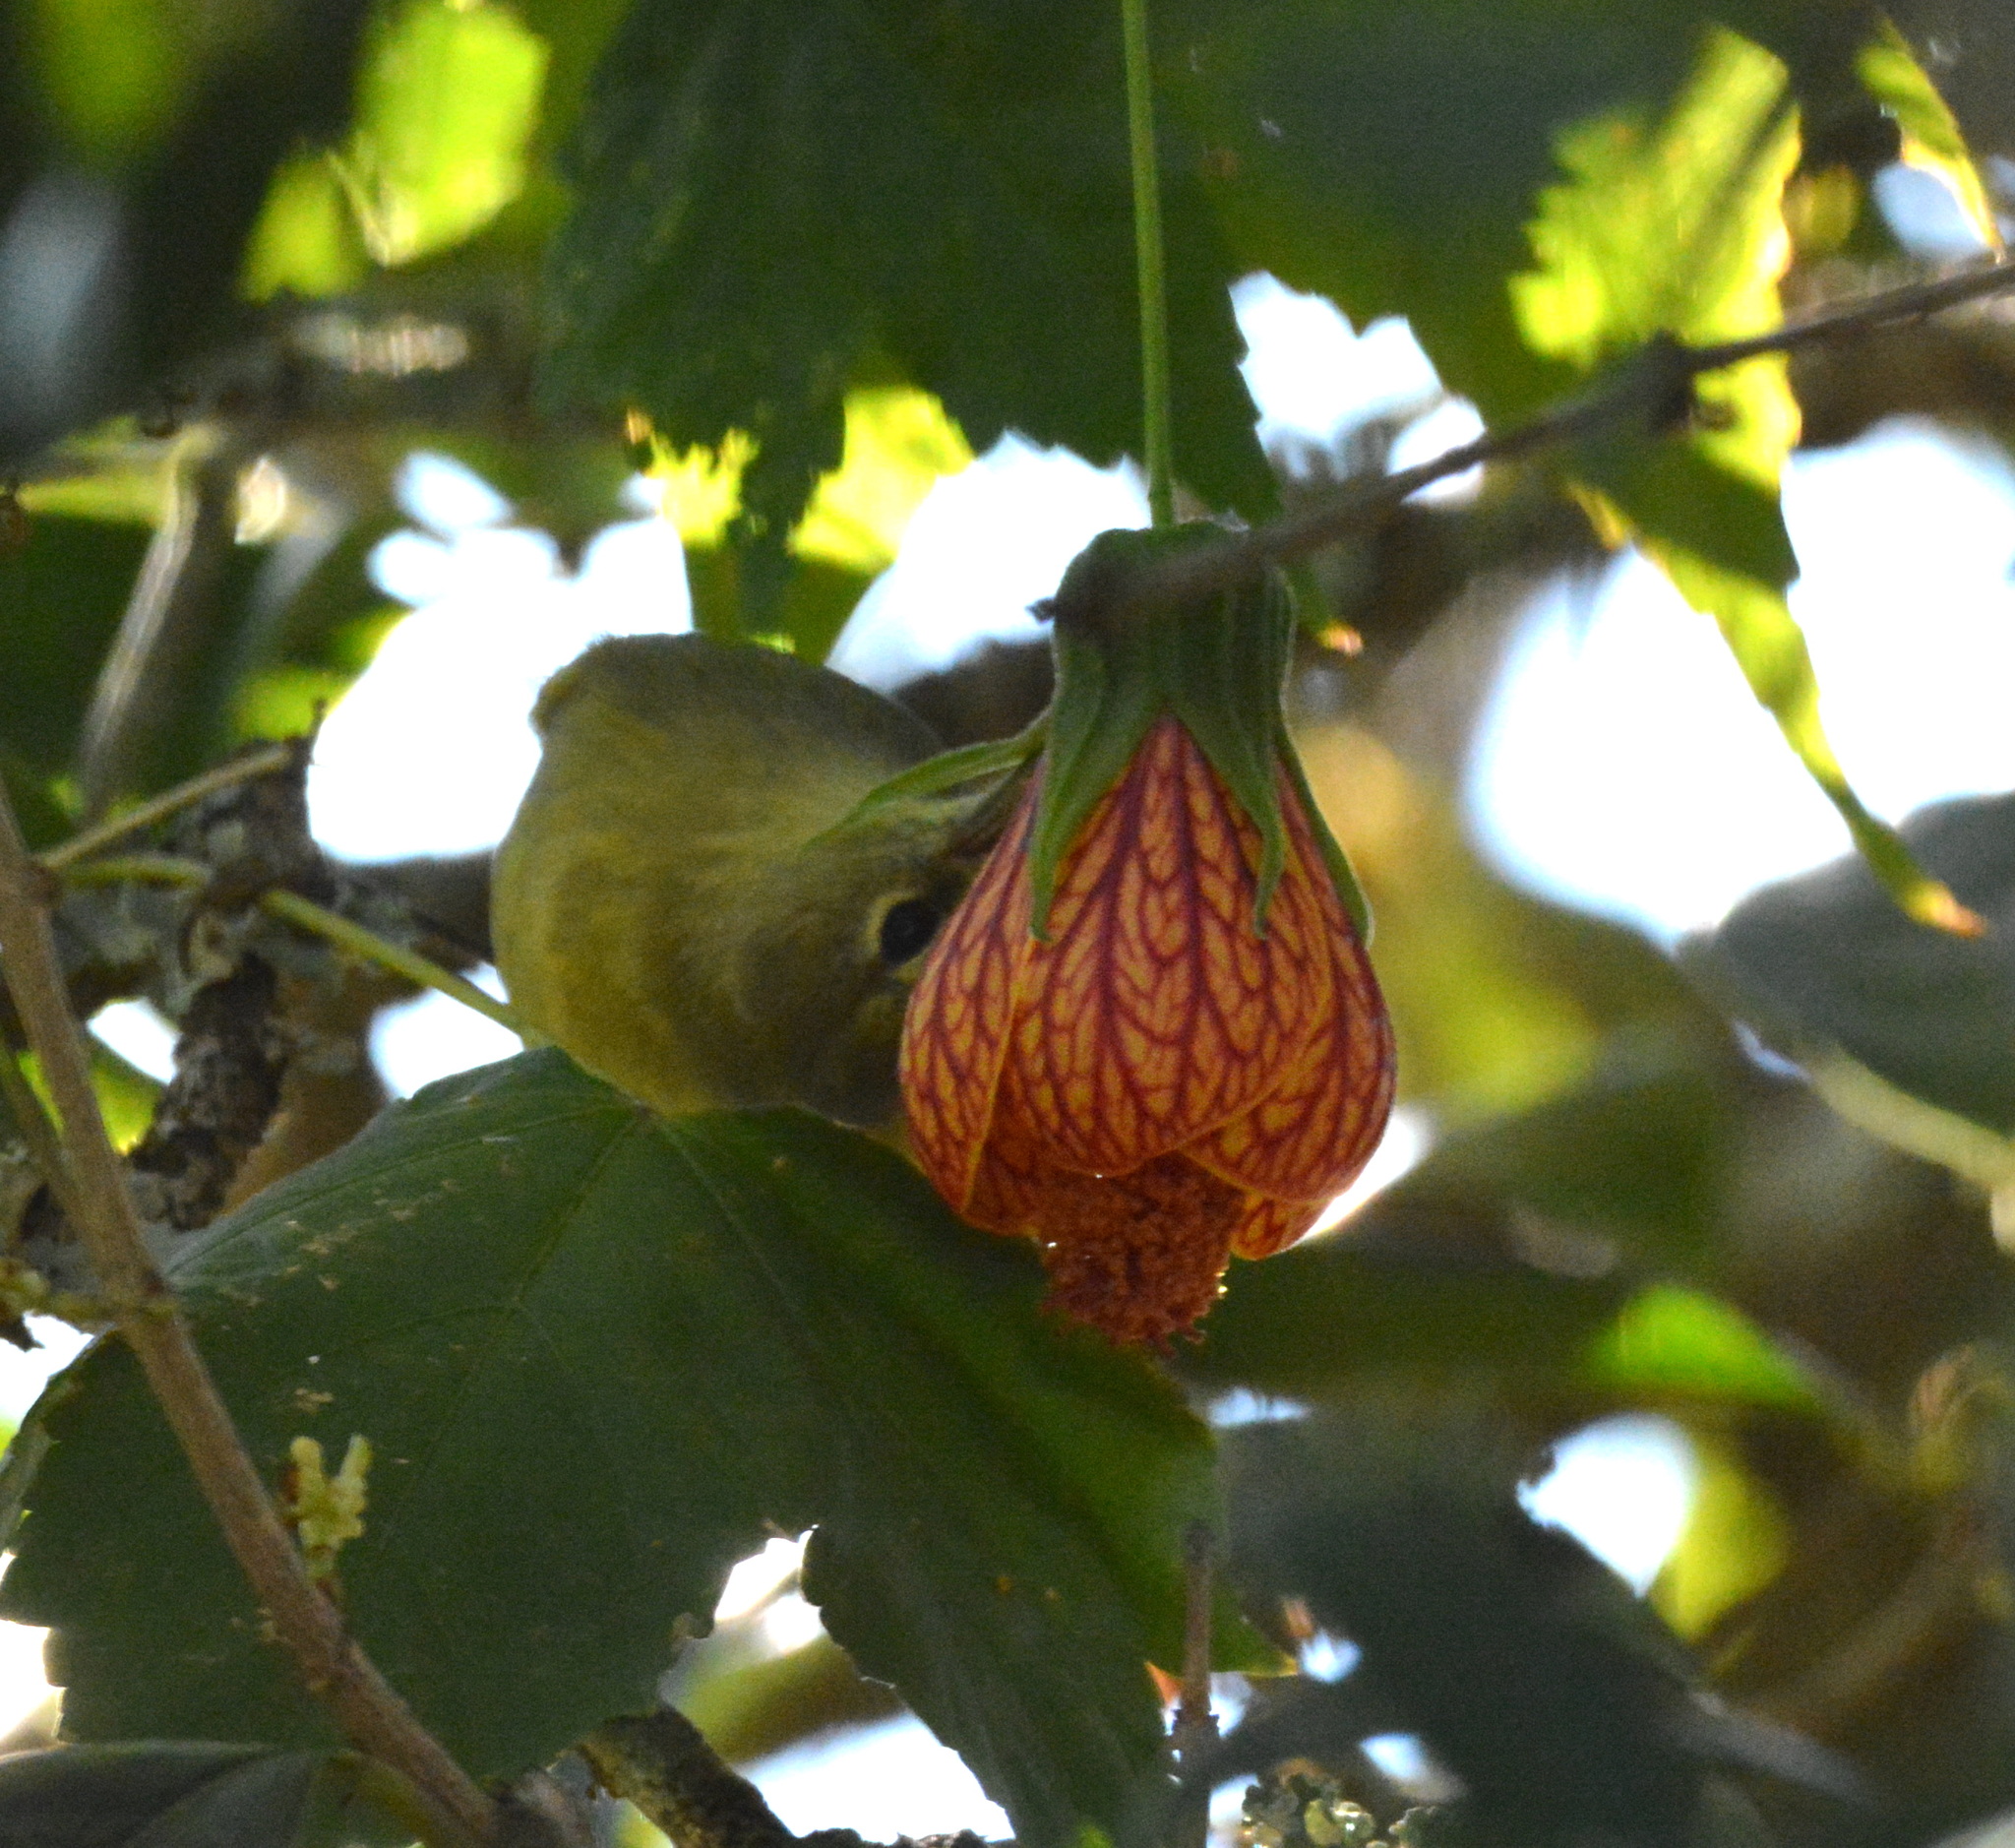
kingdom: Animalia
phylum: Chordata
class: Aves
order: Passeriformes
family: Parulidae
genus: Leiothlypis
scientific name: Leiothlypis celata
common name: Orange-crowned warbler
